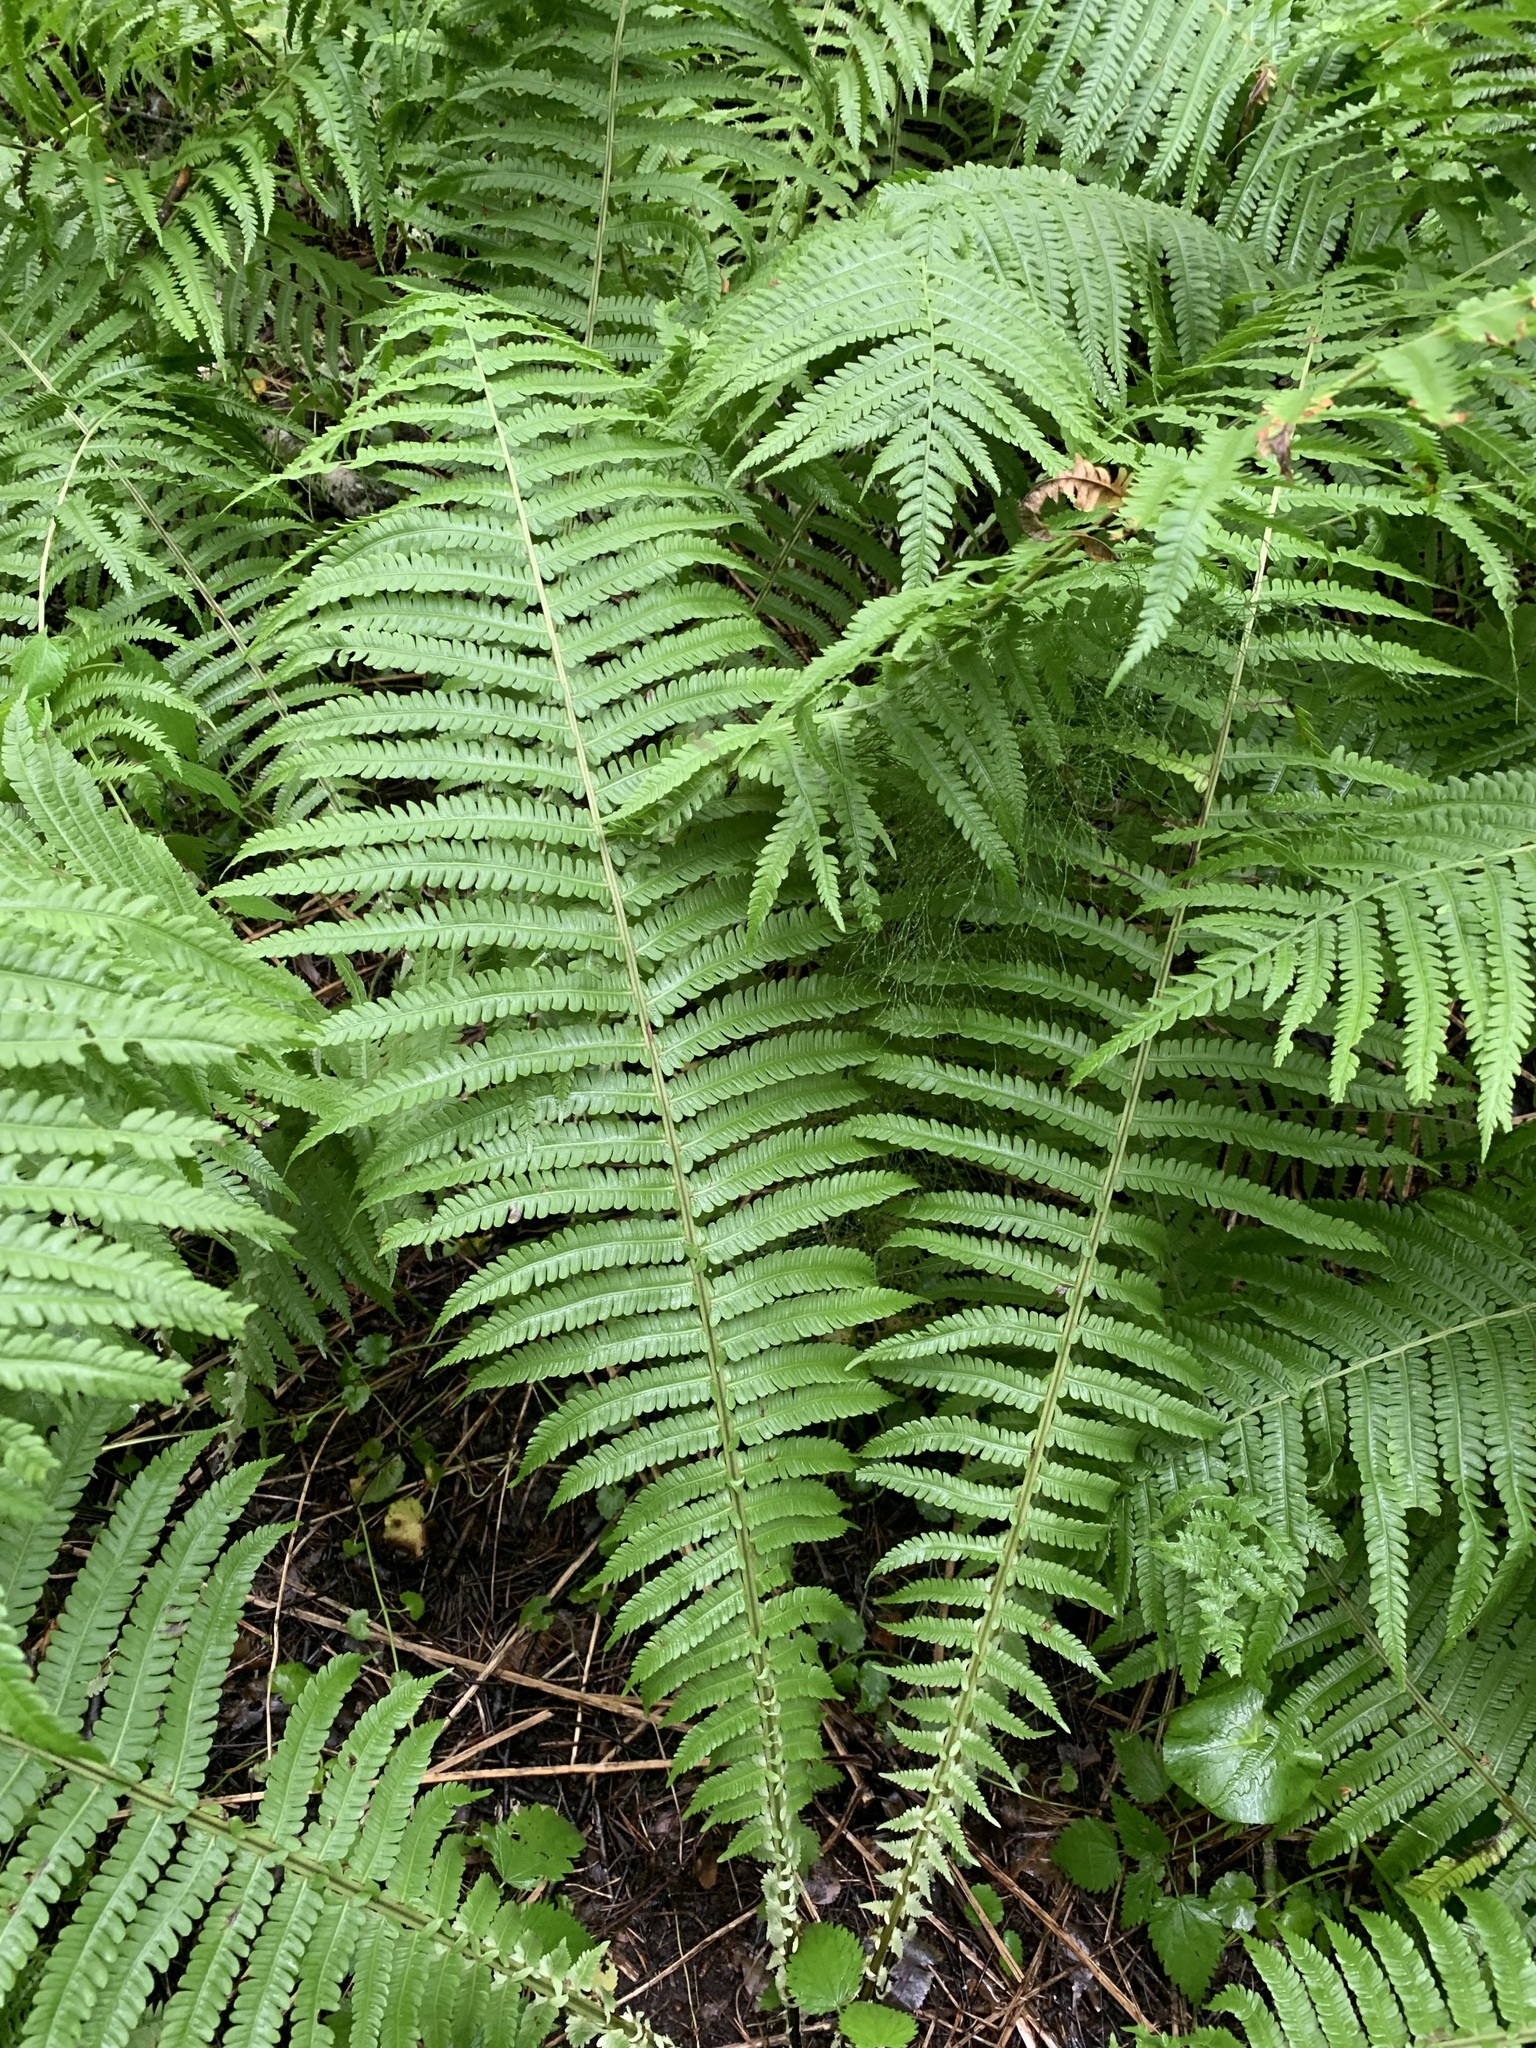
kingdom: Plantae
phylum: Tracheophyta
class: Polypodiopsida
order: Polypodiales
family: Onocleaceae
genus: Matteuccia
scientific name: Matteuccia struthiopteris
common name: Ostrich fern
